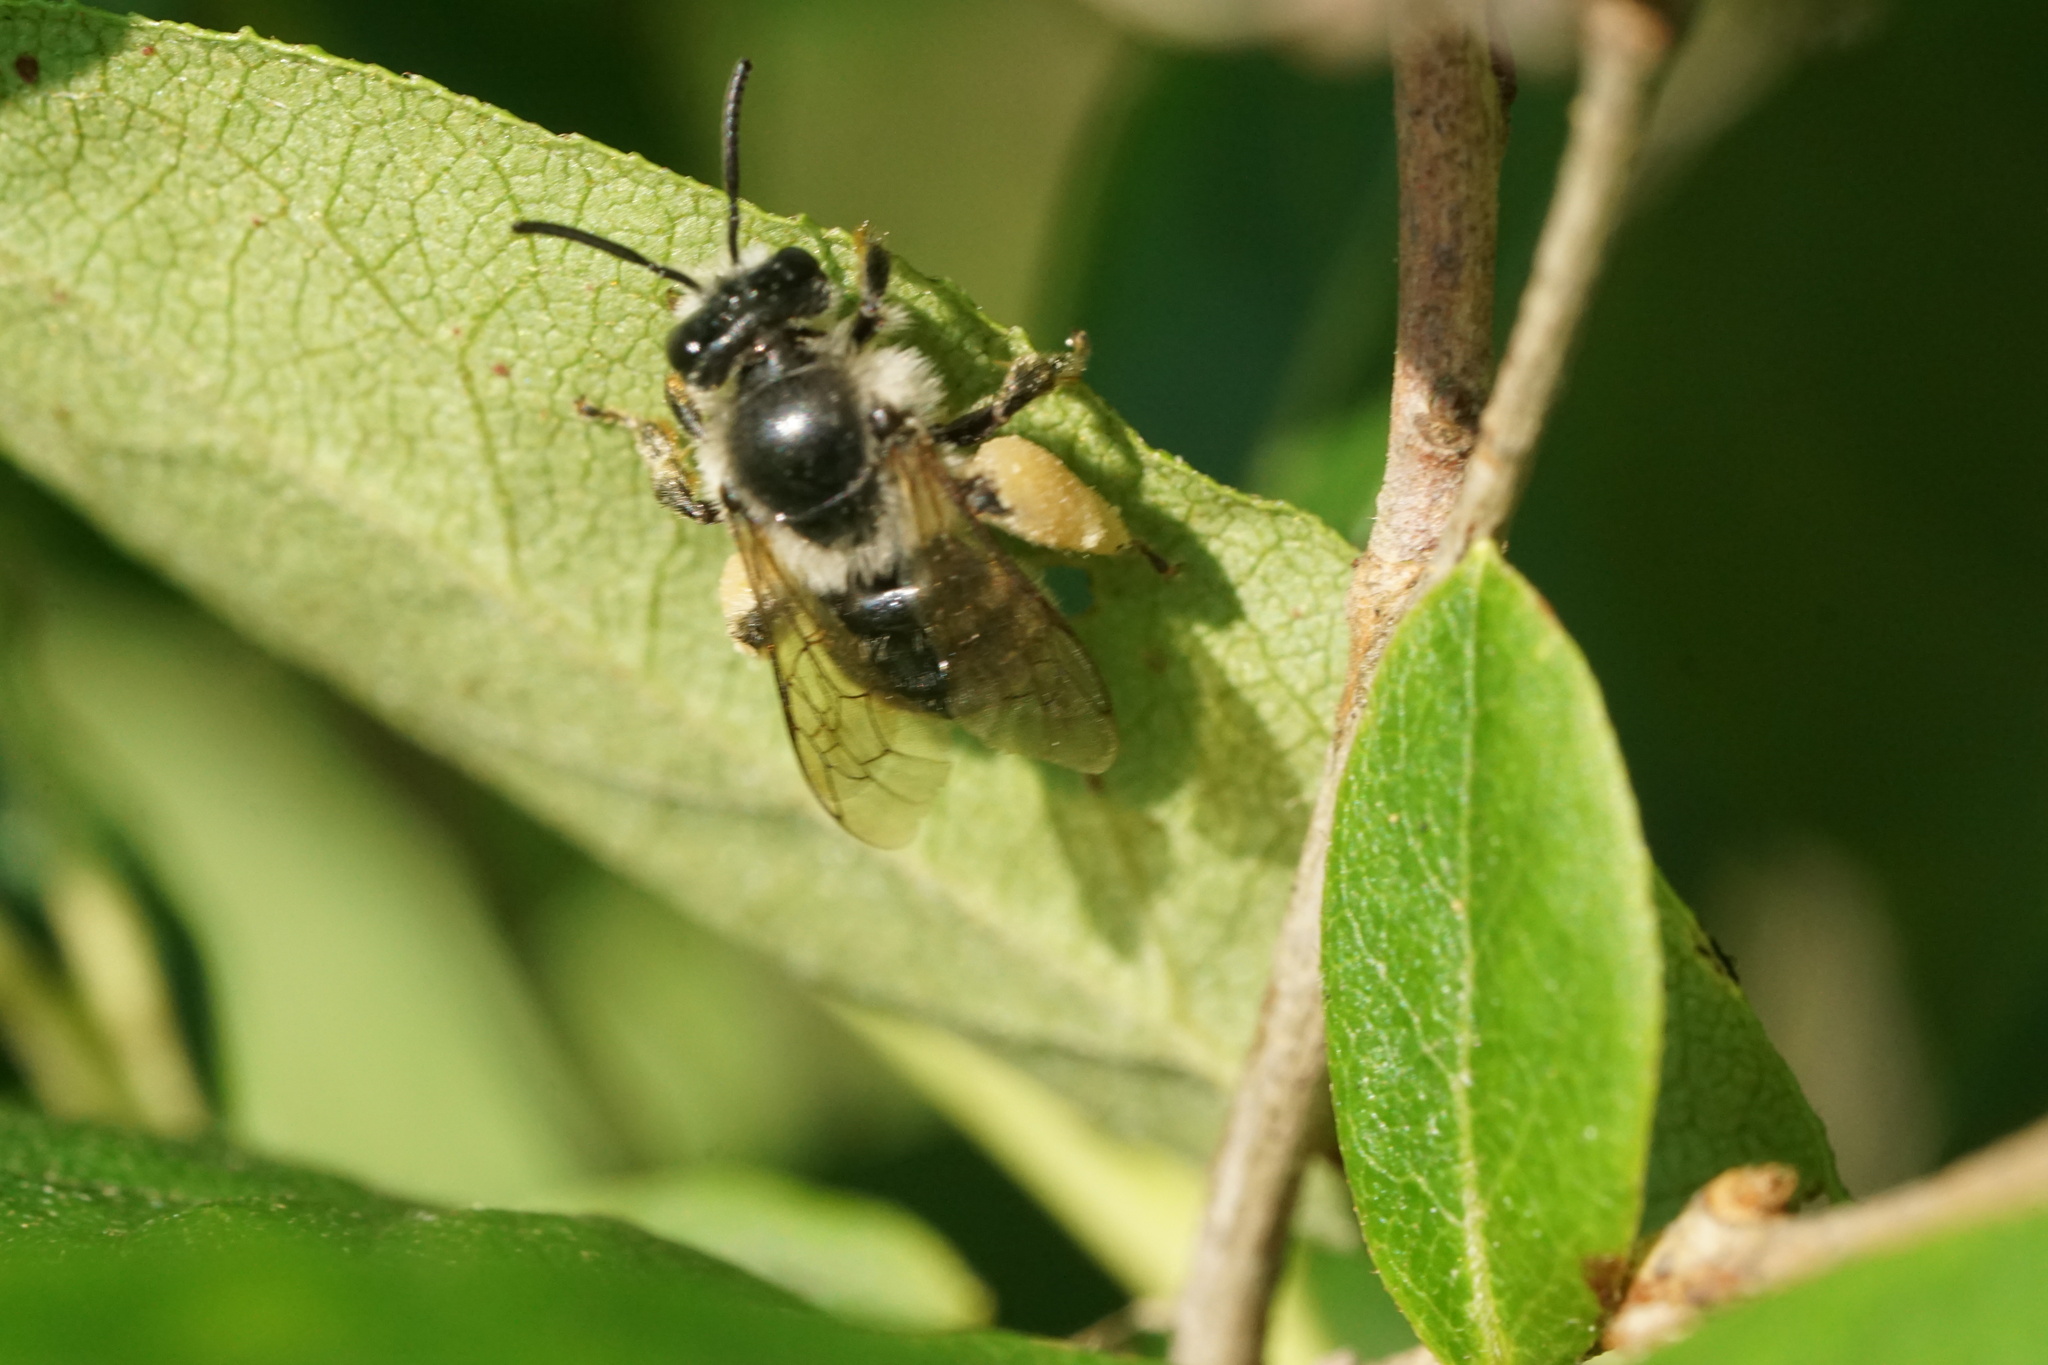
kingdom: Animalia
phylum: Arthropoda
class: Insecta
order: Hymenoptera
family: Melittidae
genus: Melitta
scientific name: Melitta melittoides
